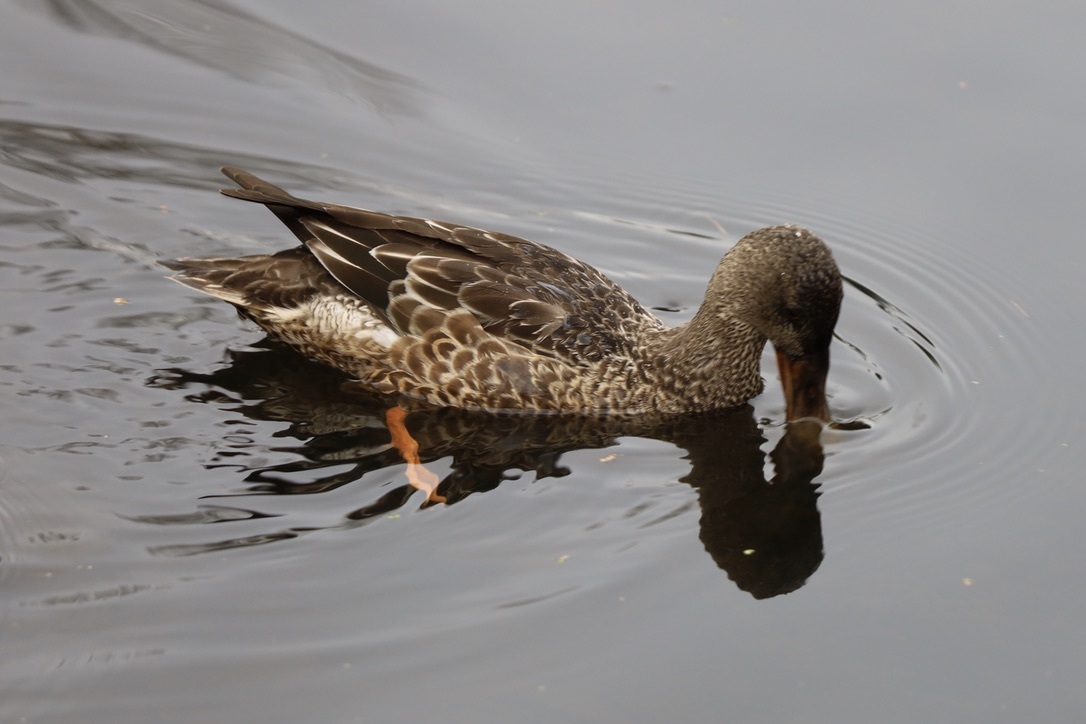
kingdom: Animalia
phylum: Chordata
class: Aves
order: Anseriformes
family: Anatidae
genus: Spatula
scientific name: Spatula clypeata
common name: Northern shoveler
